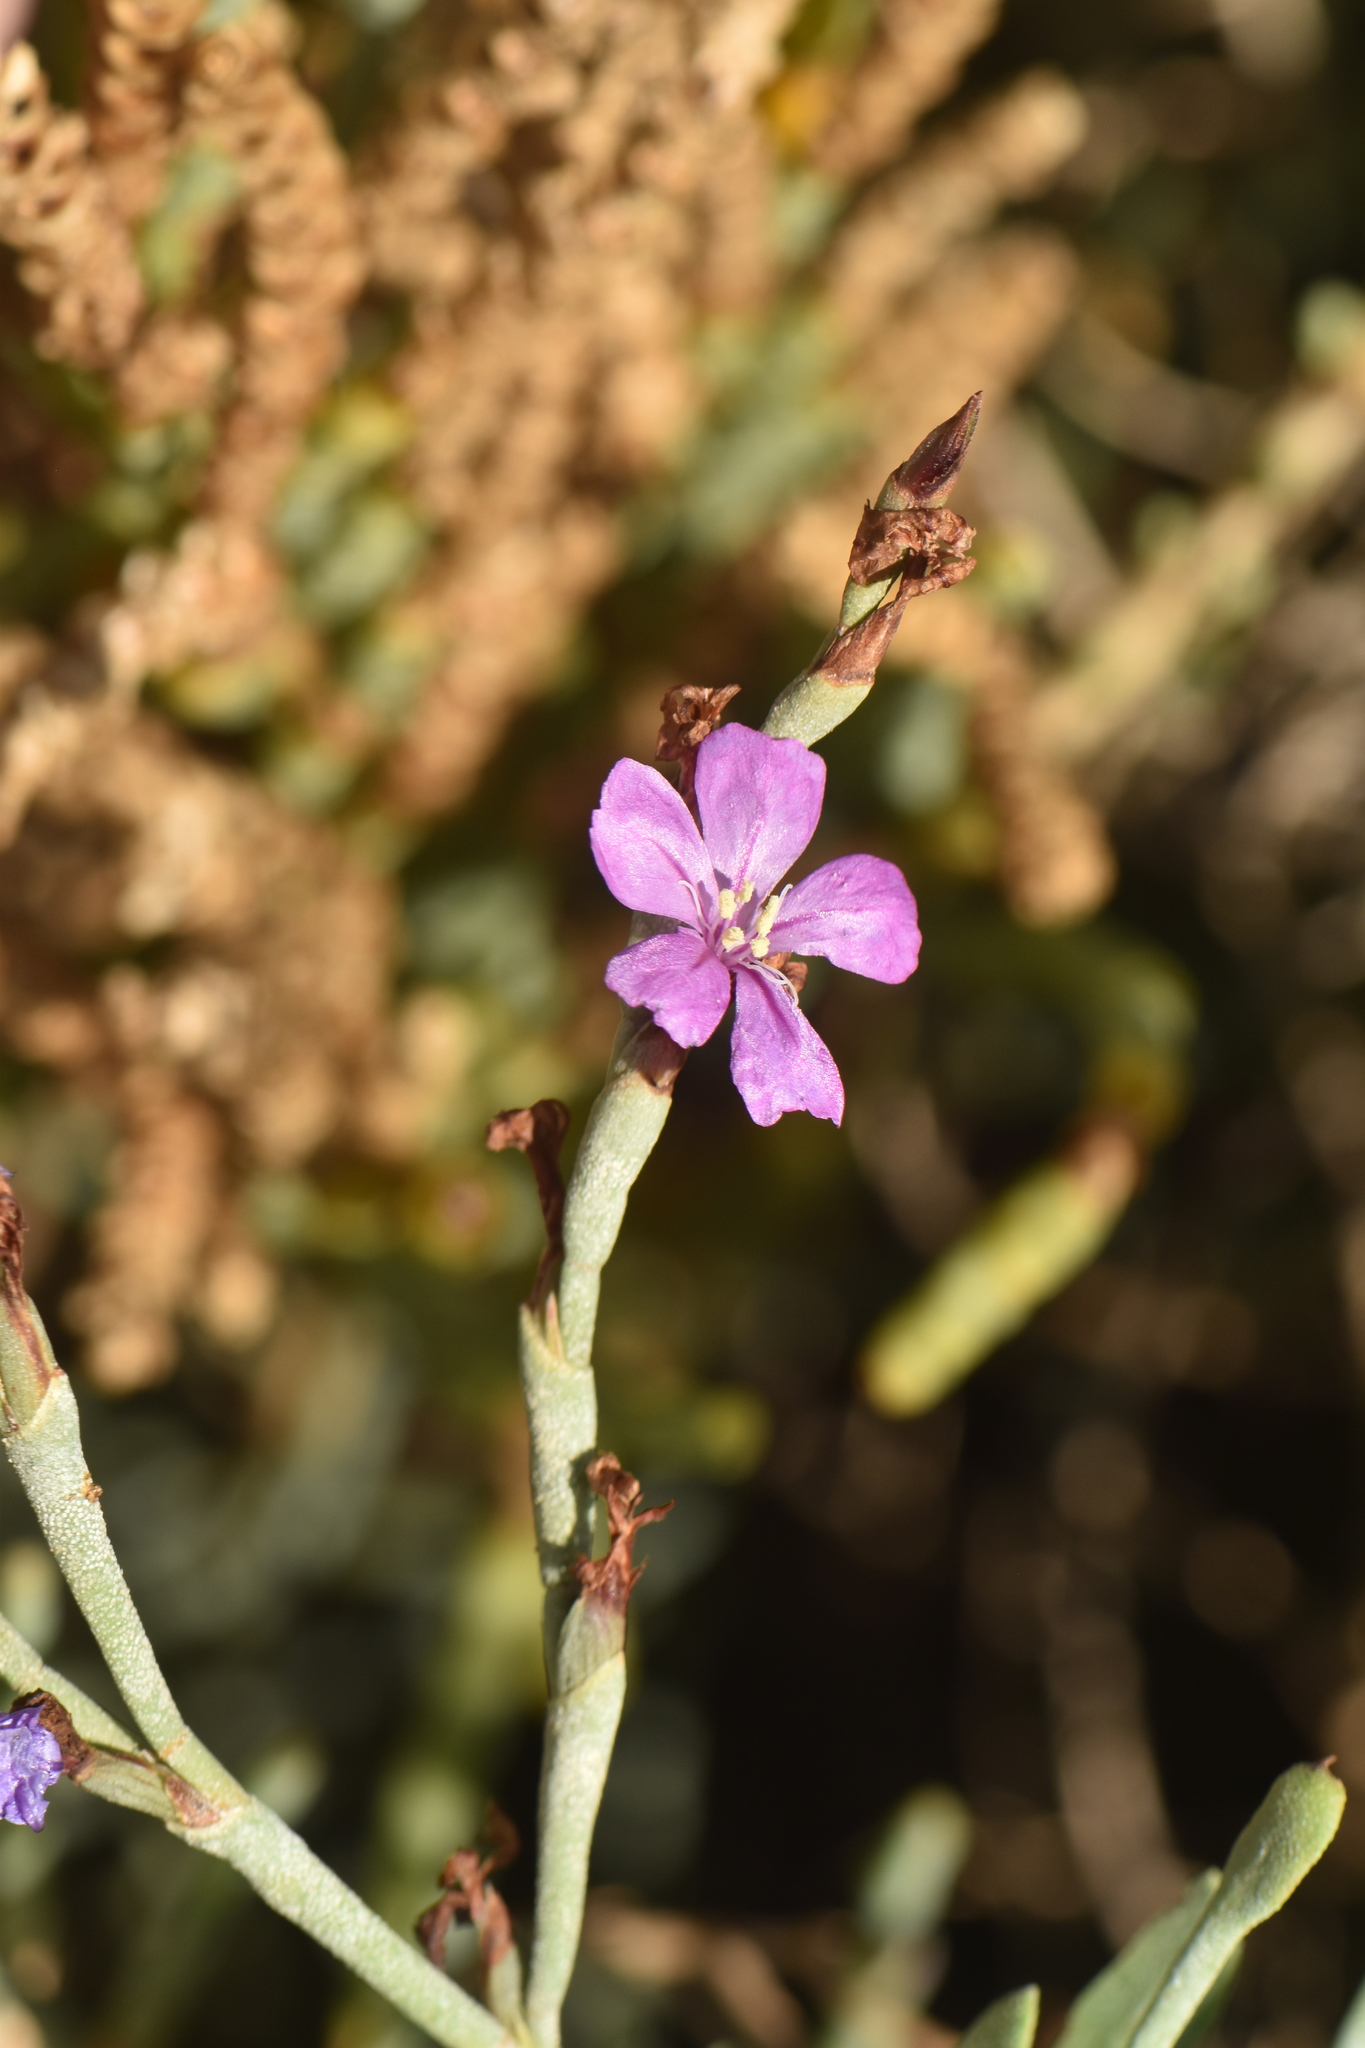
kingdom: Plantae
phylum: Tracheophyta
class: Magnoliopsida
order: Caryophyllales
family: Plumbaginaceae
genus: Limoniastrum
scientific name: Limoniastrum monopetalum
